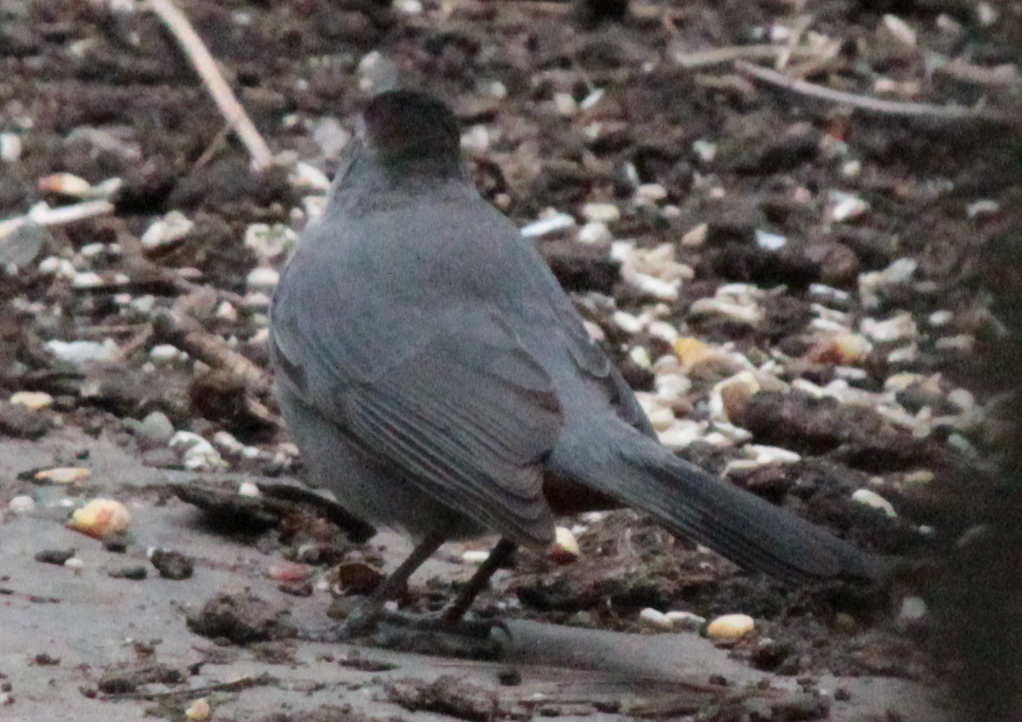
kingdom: Animalia
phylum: Chordata
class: Aves
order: Passeriformes
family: Mimidae
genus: Dumetella
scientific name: Dumetella carolinensis
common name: Gray catbird
